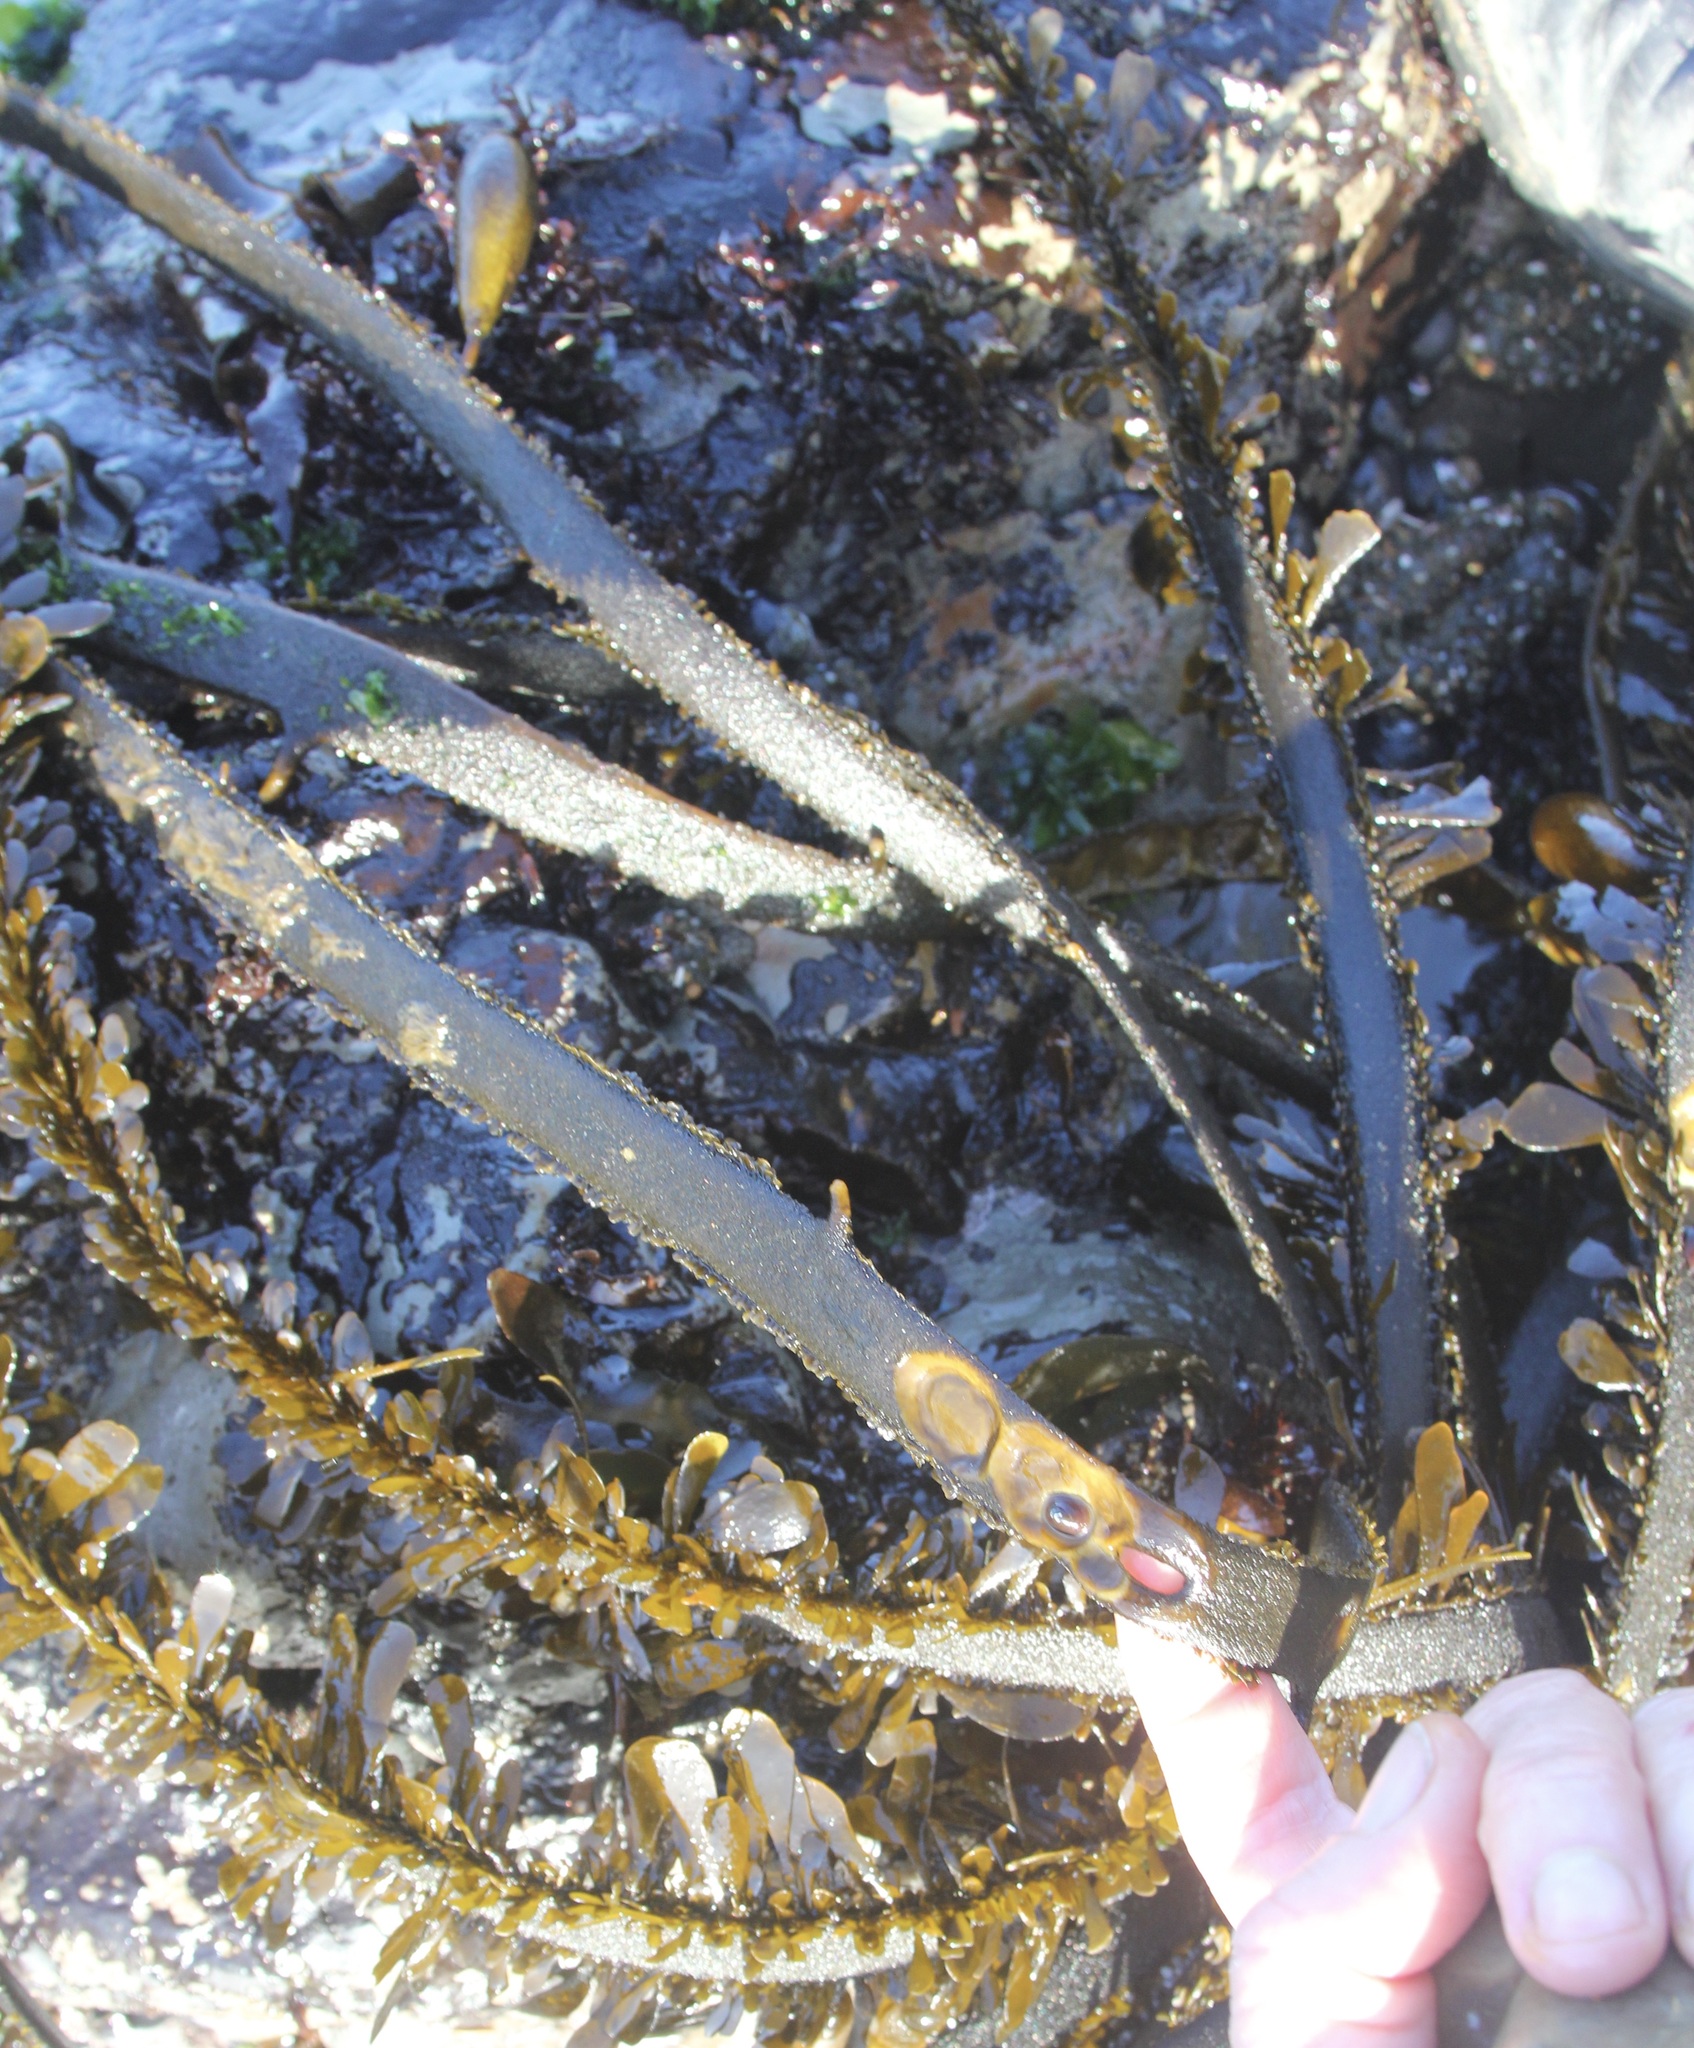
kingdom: Animalia
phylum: Mollusca
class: Gastropoda
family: Lottiidae
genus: Discurria
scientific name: Discurria insessa
